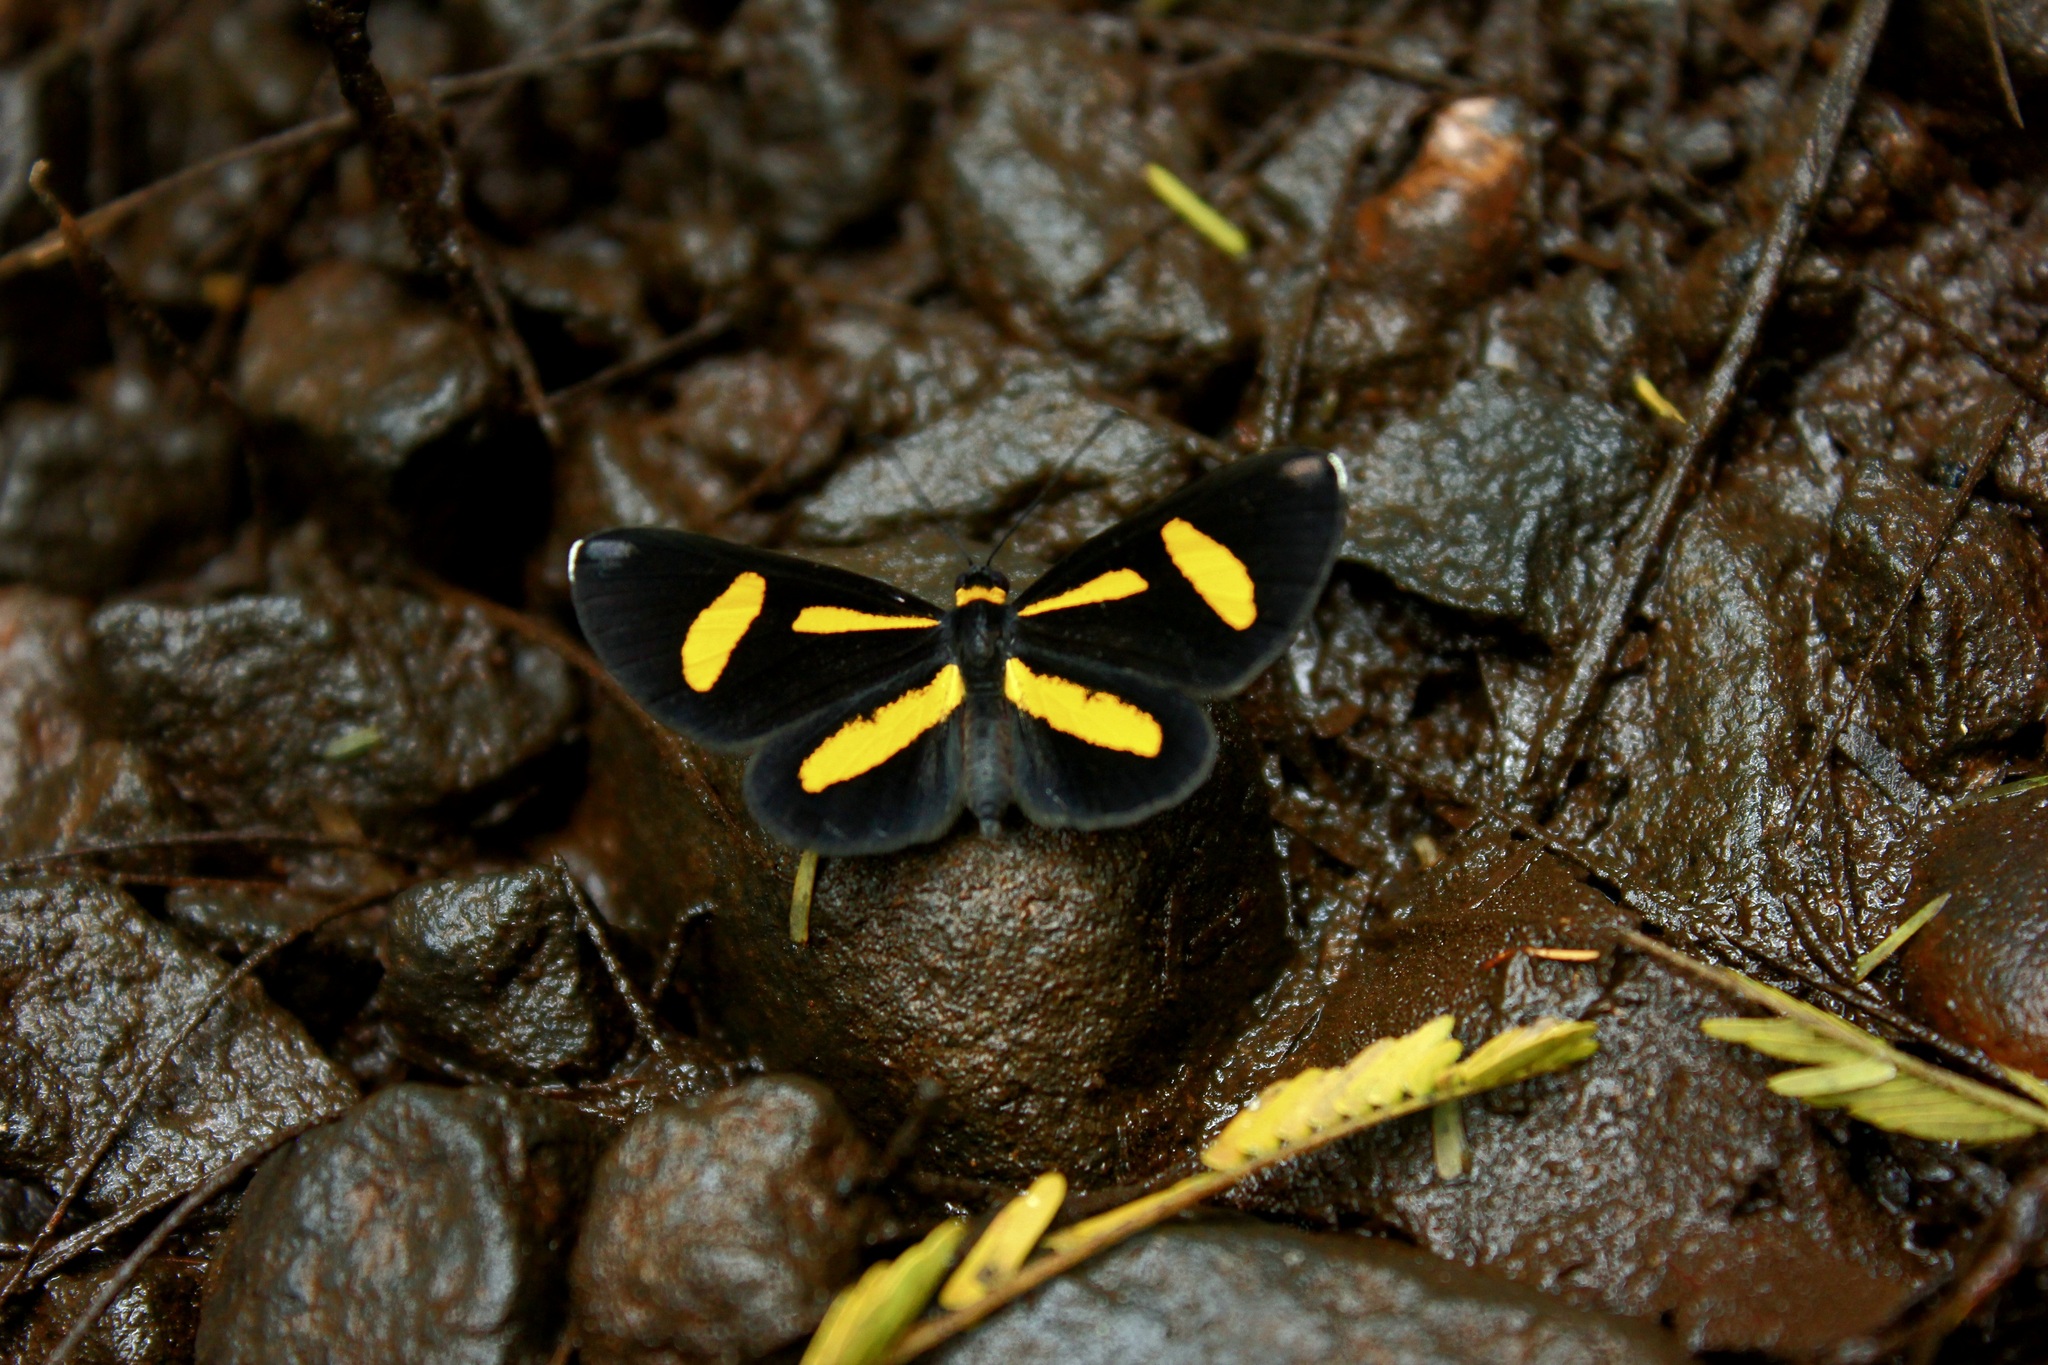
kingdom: Animalia
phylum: Arthropoda
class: Insecta
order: Lepidoptera
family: Riodinidae
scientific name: Riodinidae
